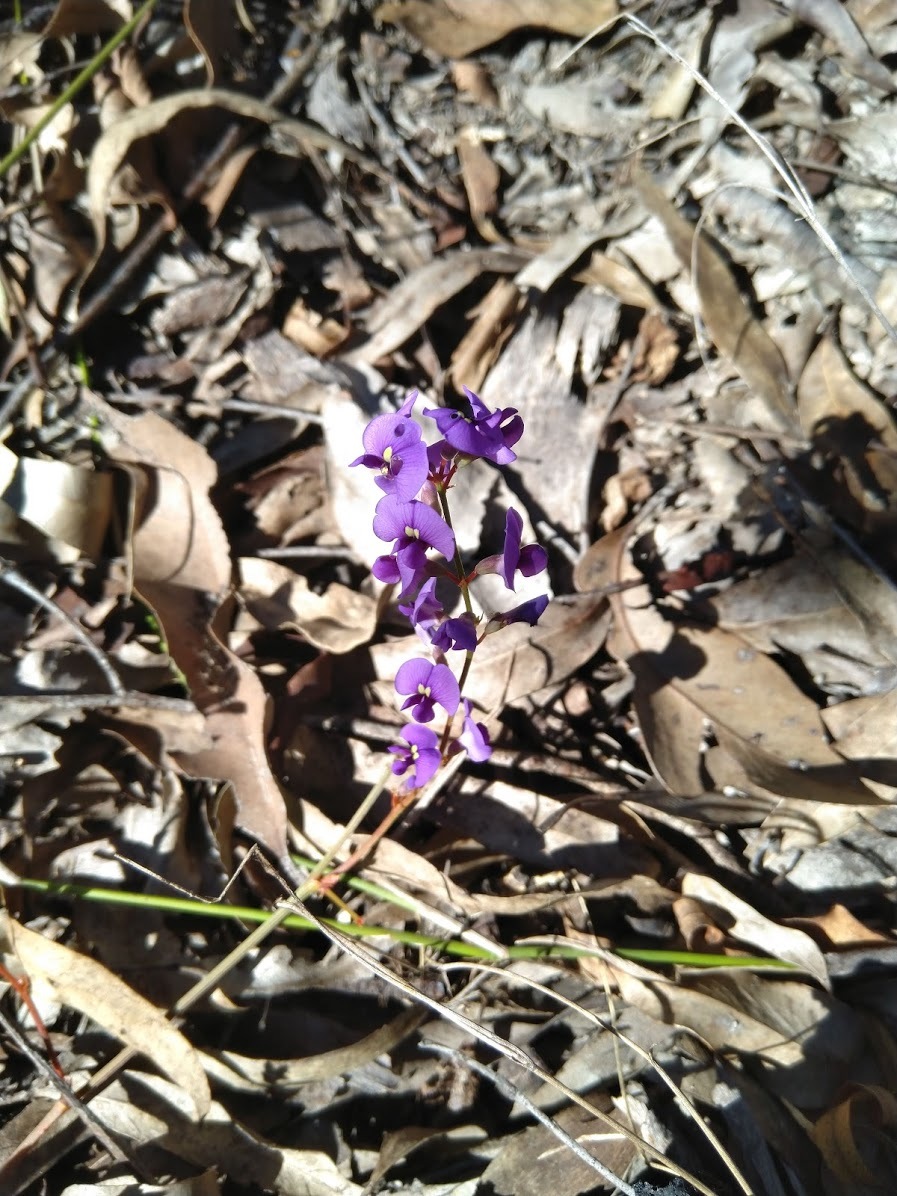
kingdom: Plantae
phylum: Tracheophyta
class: Magnoliopsida
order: Fabales
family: Fabaceae
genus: Hardenbergia
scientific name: Hardenbergia violacea
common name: Coral-pea
